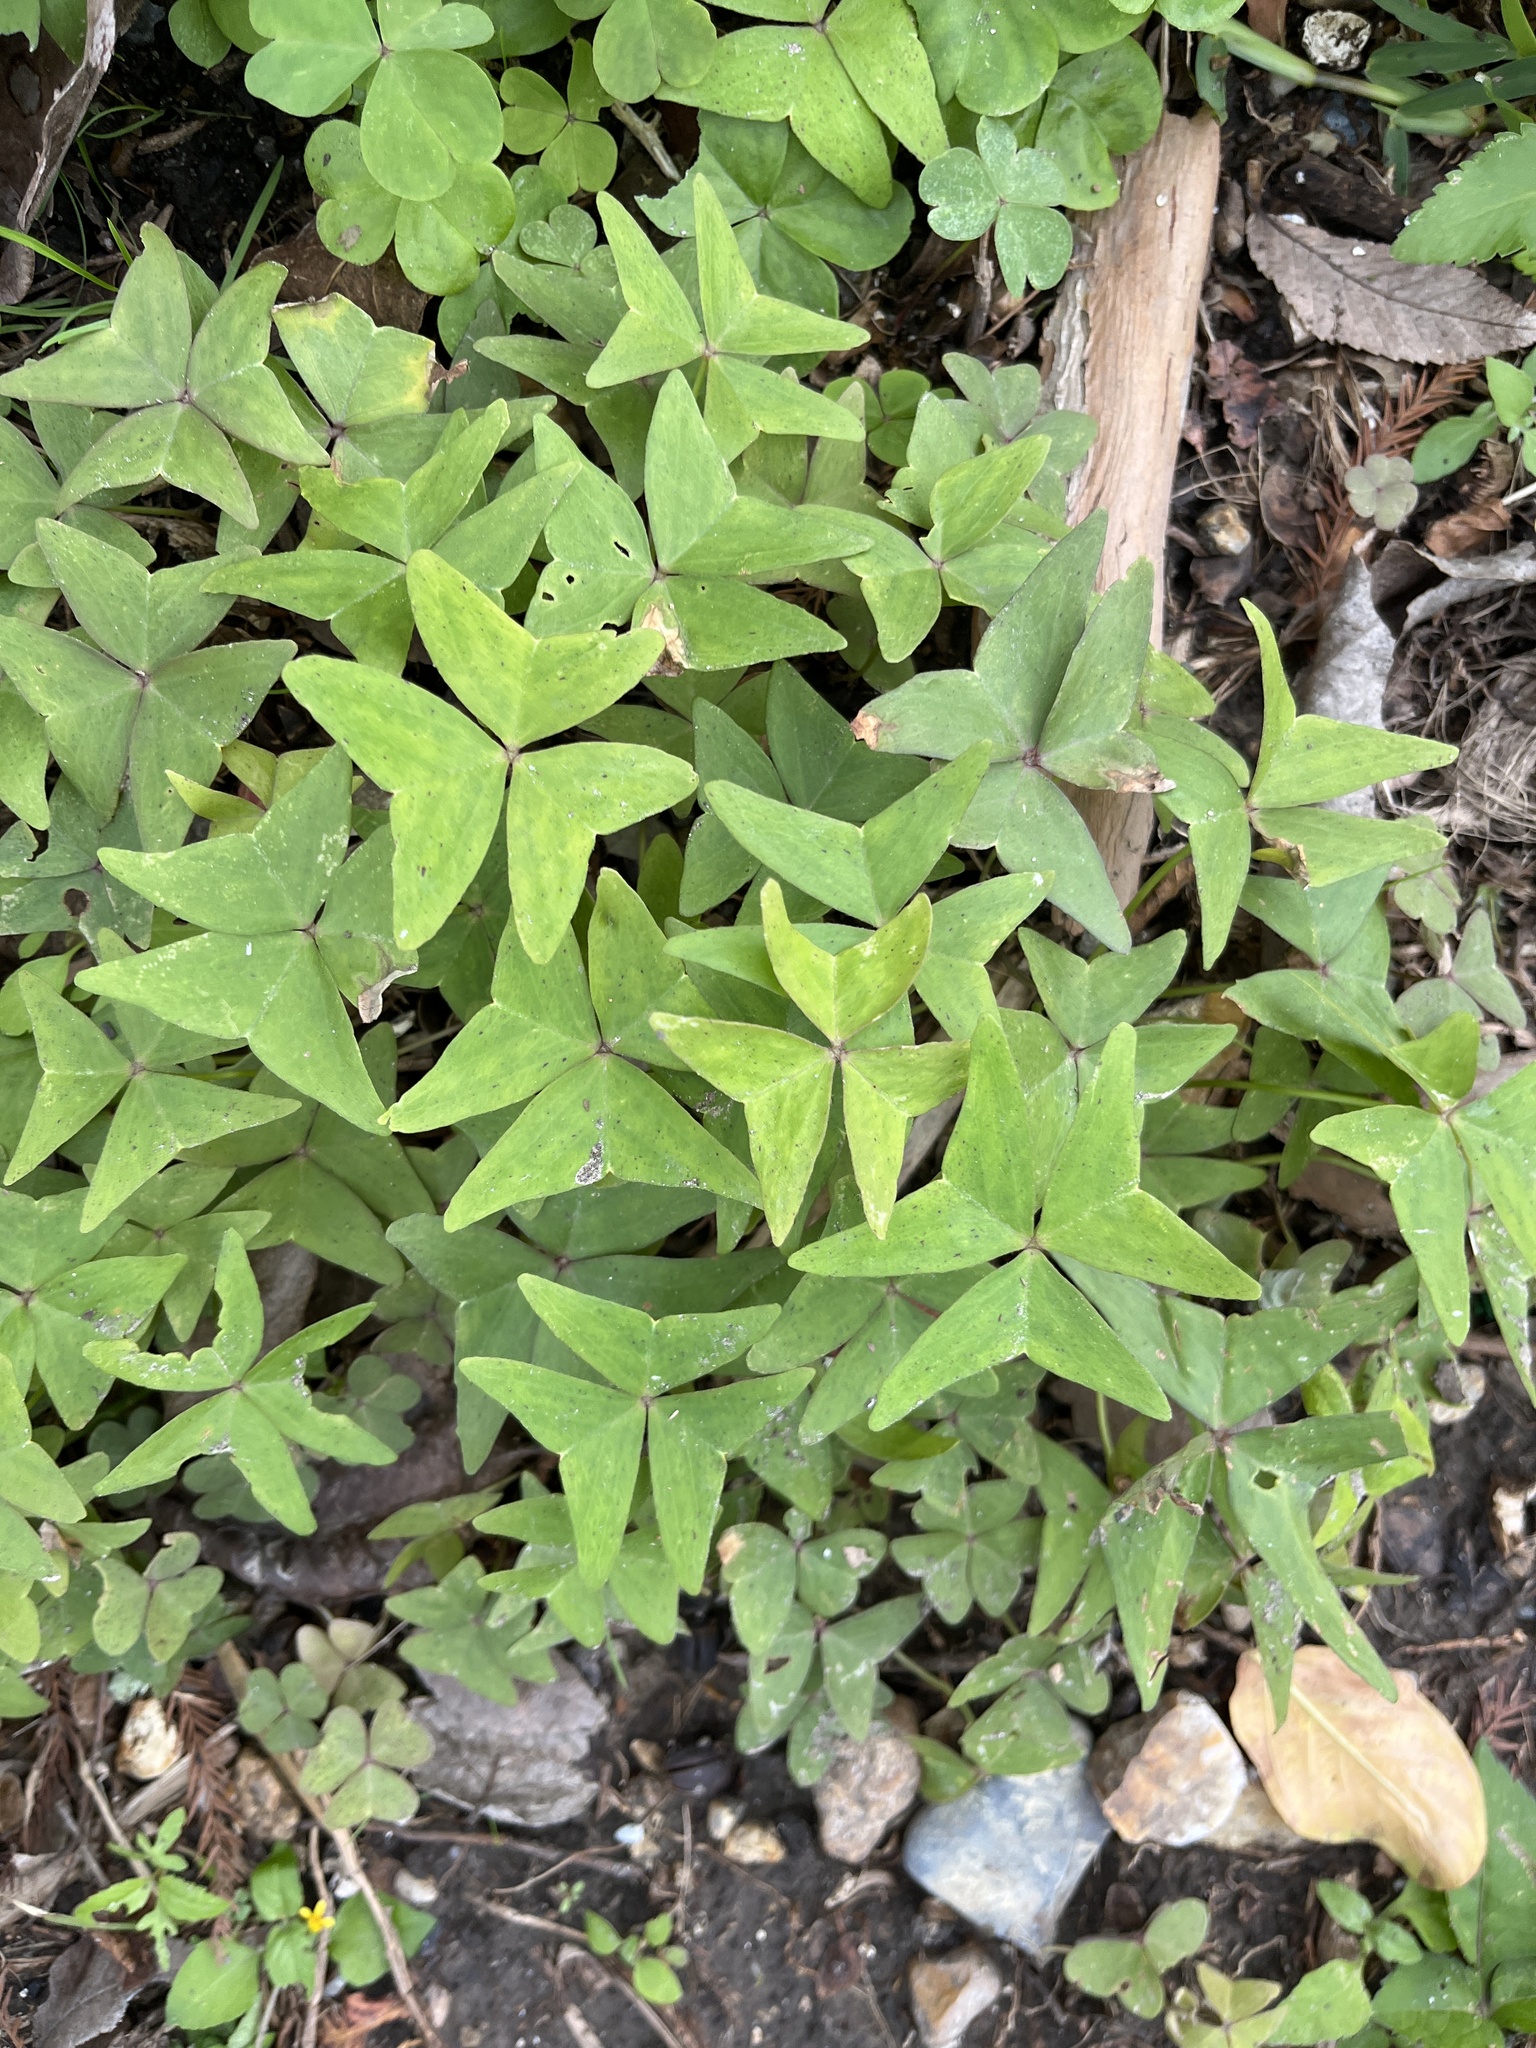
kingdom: Plantae
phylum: Tracheophyta
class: Magnoliopsida
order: Oxalidales
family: Oxalidaceae
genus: Oxalis
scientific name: Oxalis intermedia
